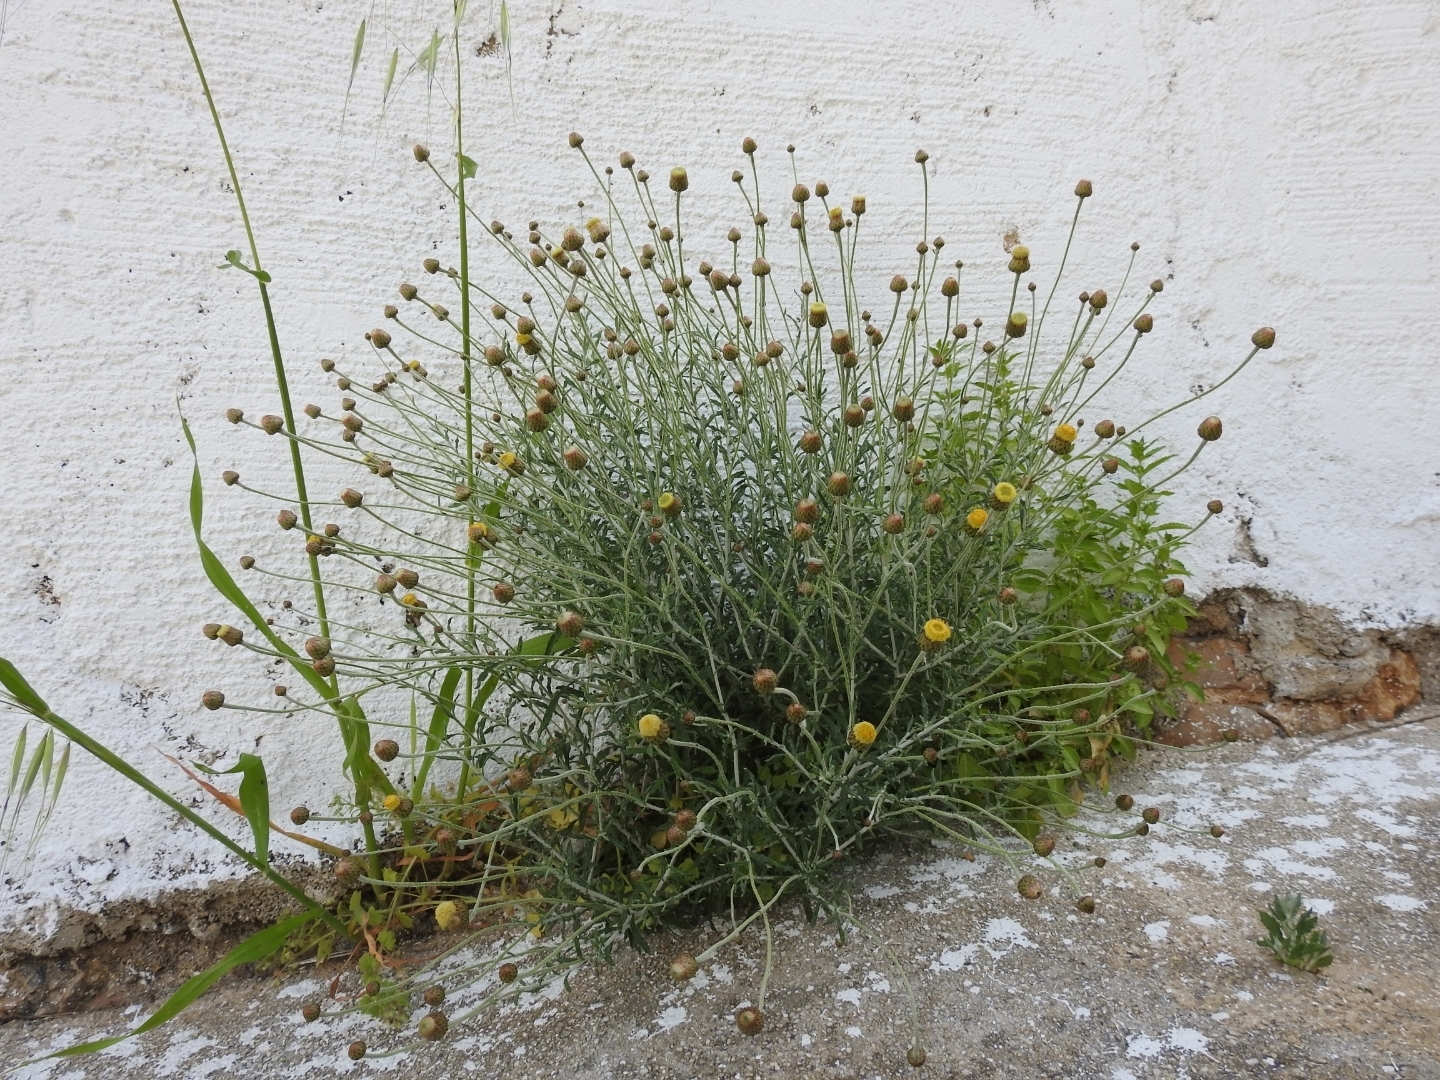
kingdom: Plantae
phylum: Tracheophyta
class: Magnoliopsida
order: Asterales
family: Asteraceae
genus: Phagnalon
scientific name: Phagnalon graecum
